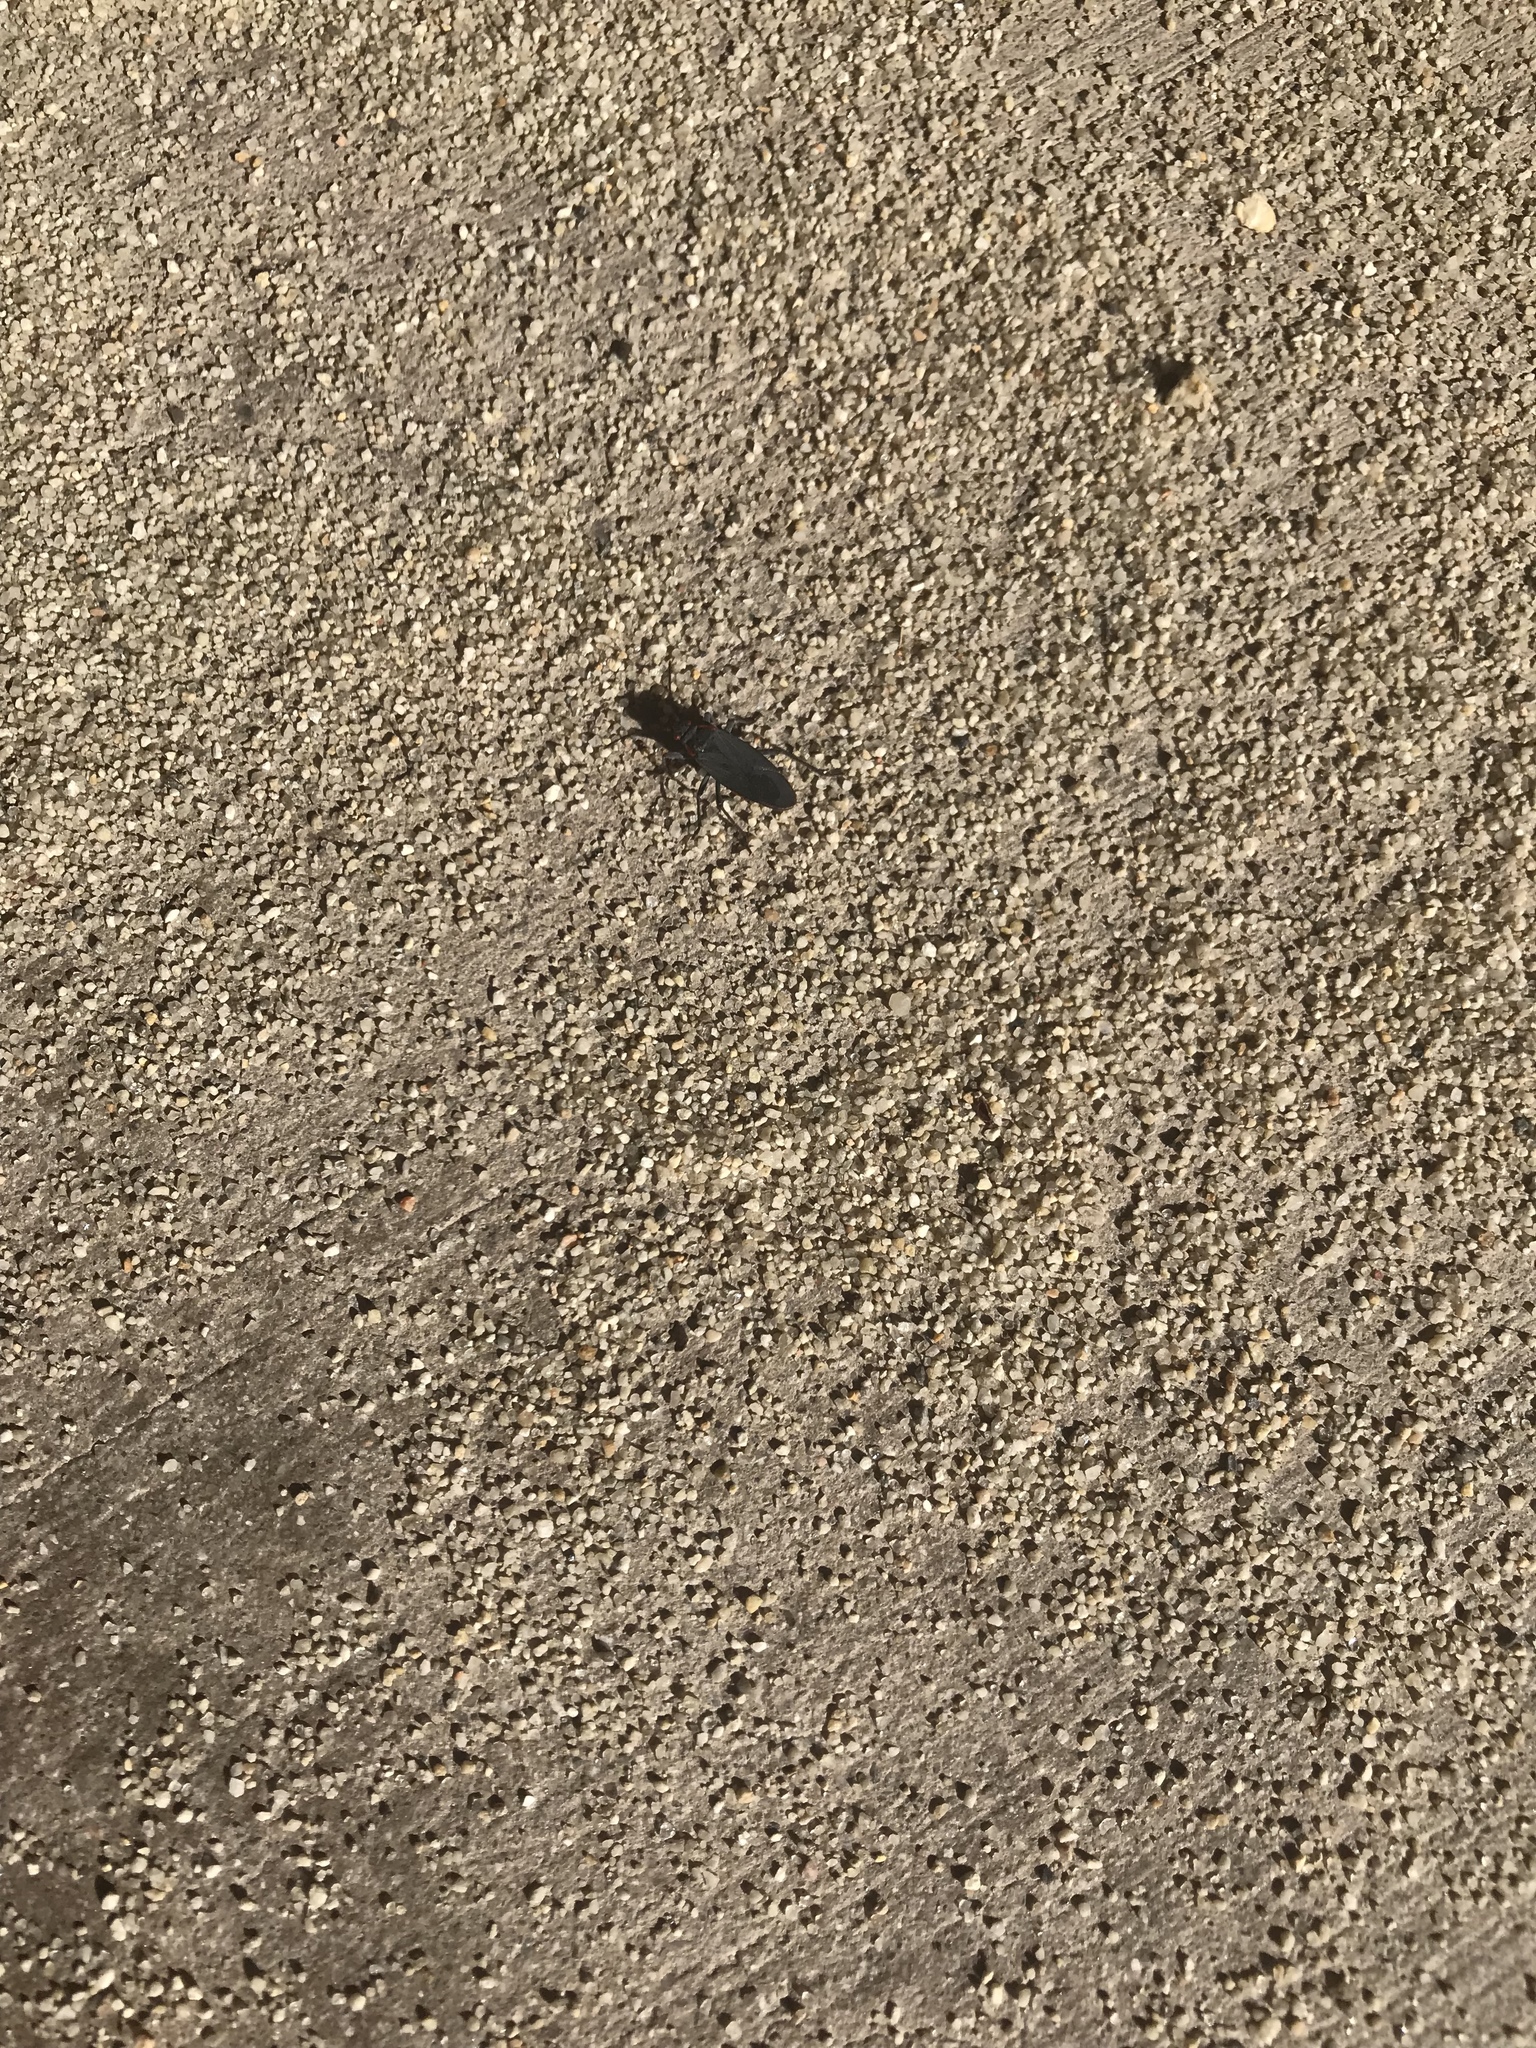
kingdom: Animalia
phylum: Arthropoda
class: Insecta
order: Hemiptera
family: Rhopalidae
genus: Jadera
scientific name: Jadera haematoloma
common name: Red-shouldered bug
